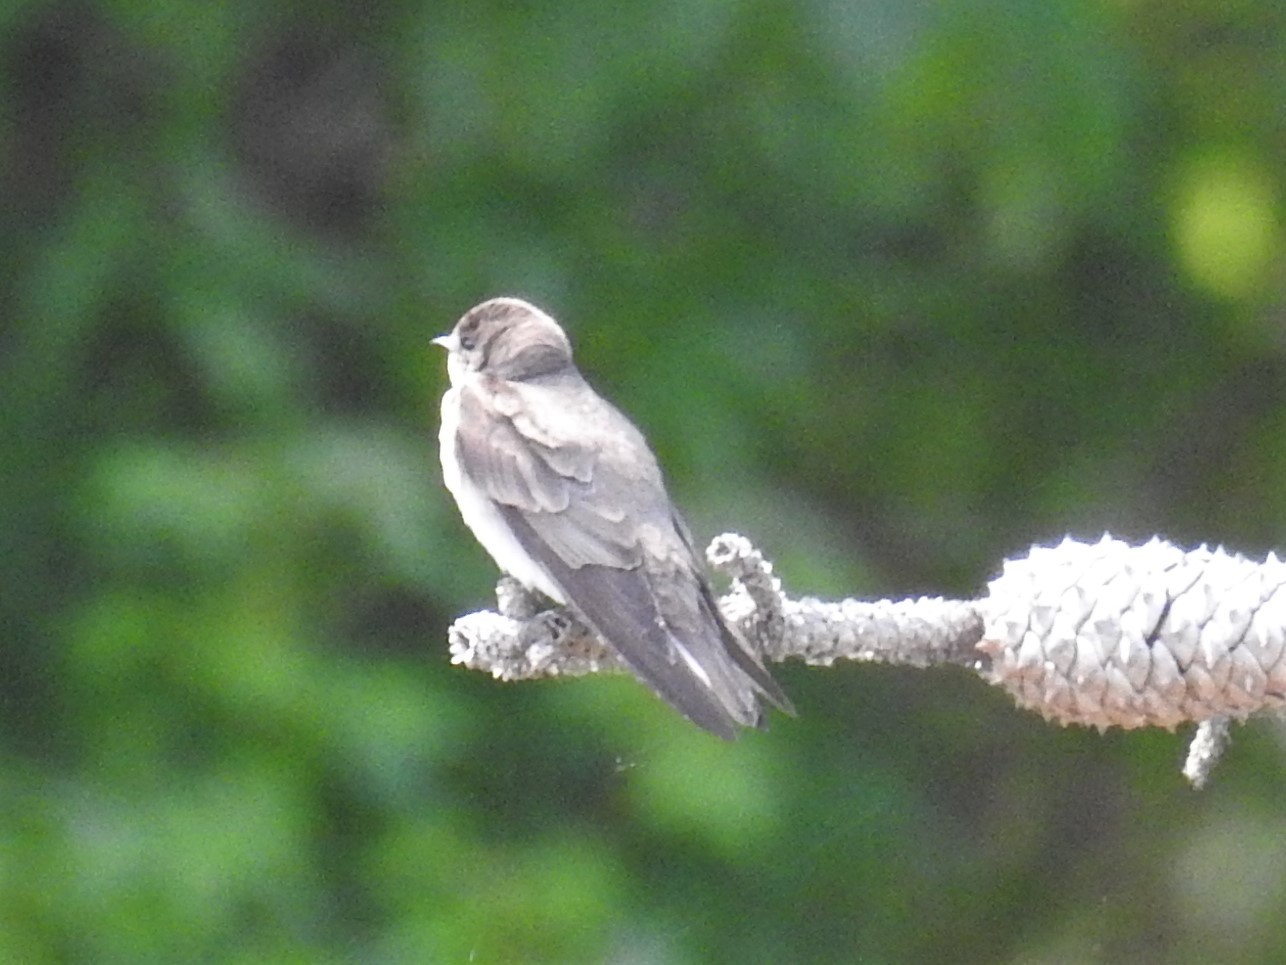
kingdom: Animalia
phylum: Chordata
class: Aves
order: Passeriformes
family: Hirundinidae
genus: Stelgidopteryx
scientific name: Stelgidopteryx serripennis
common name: Northern rough-winged swallow
